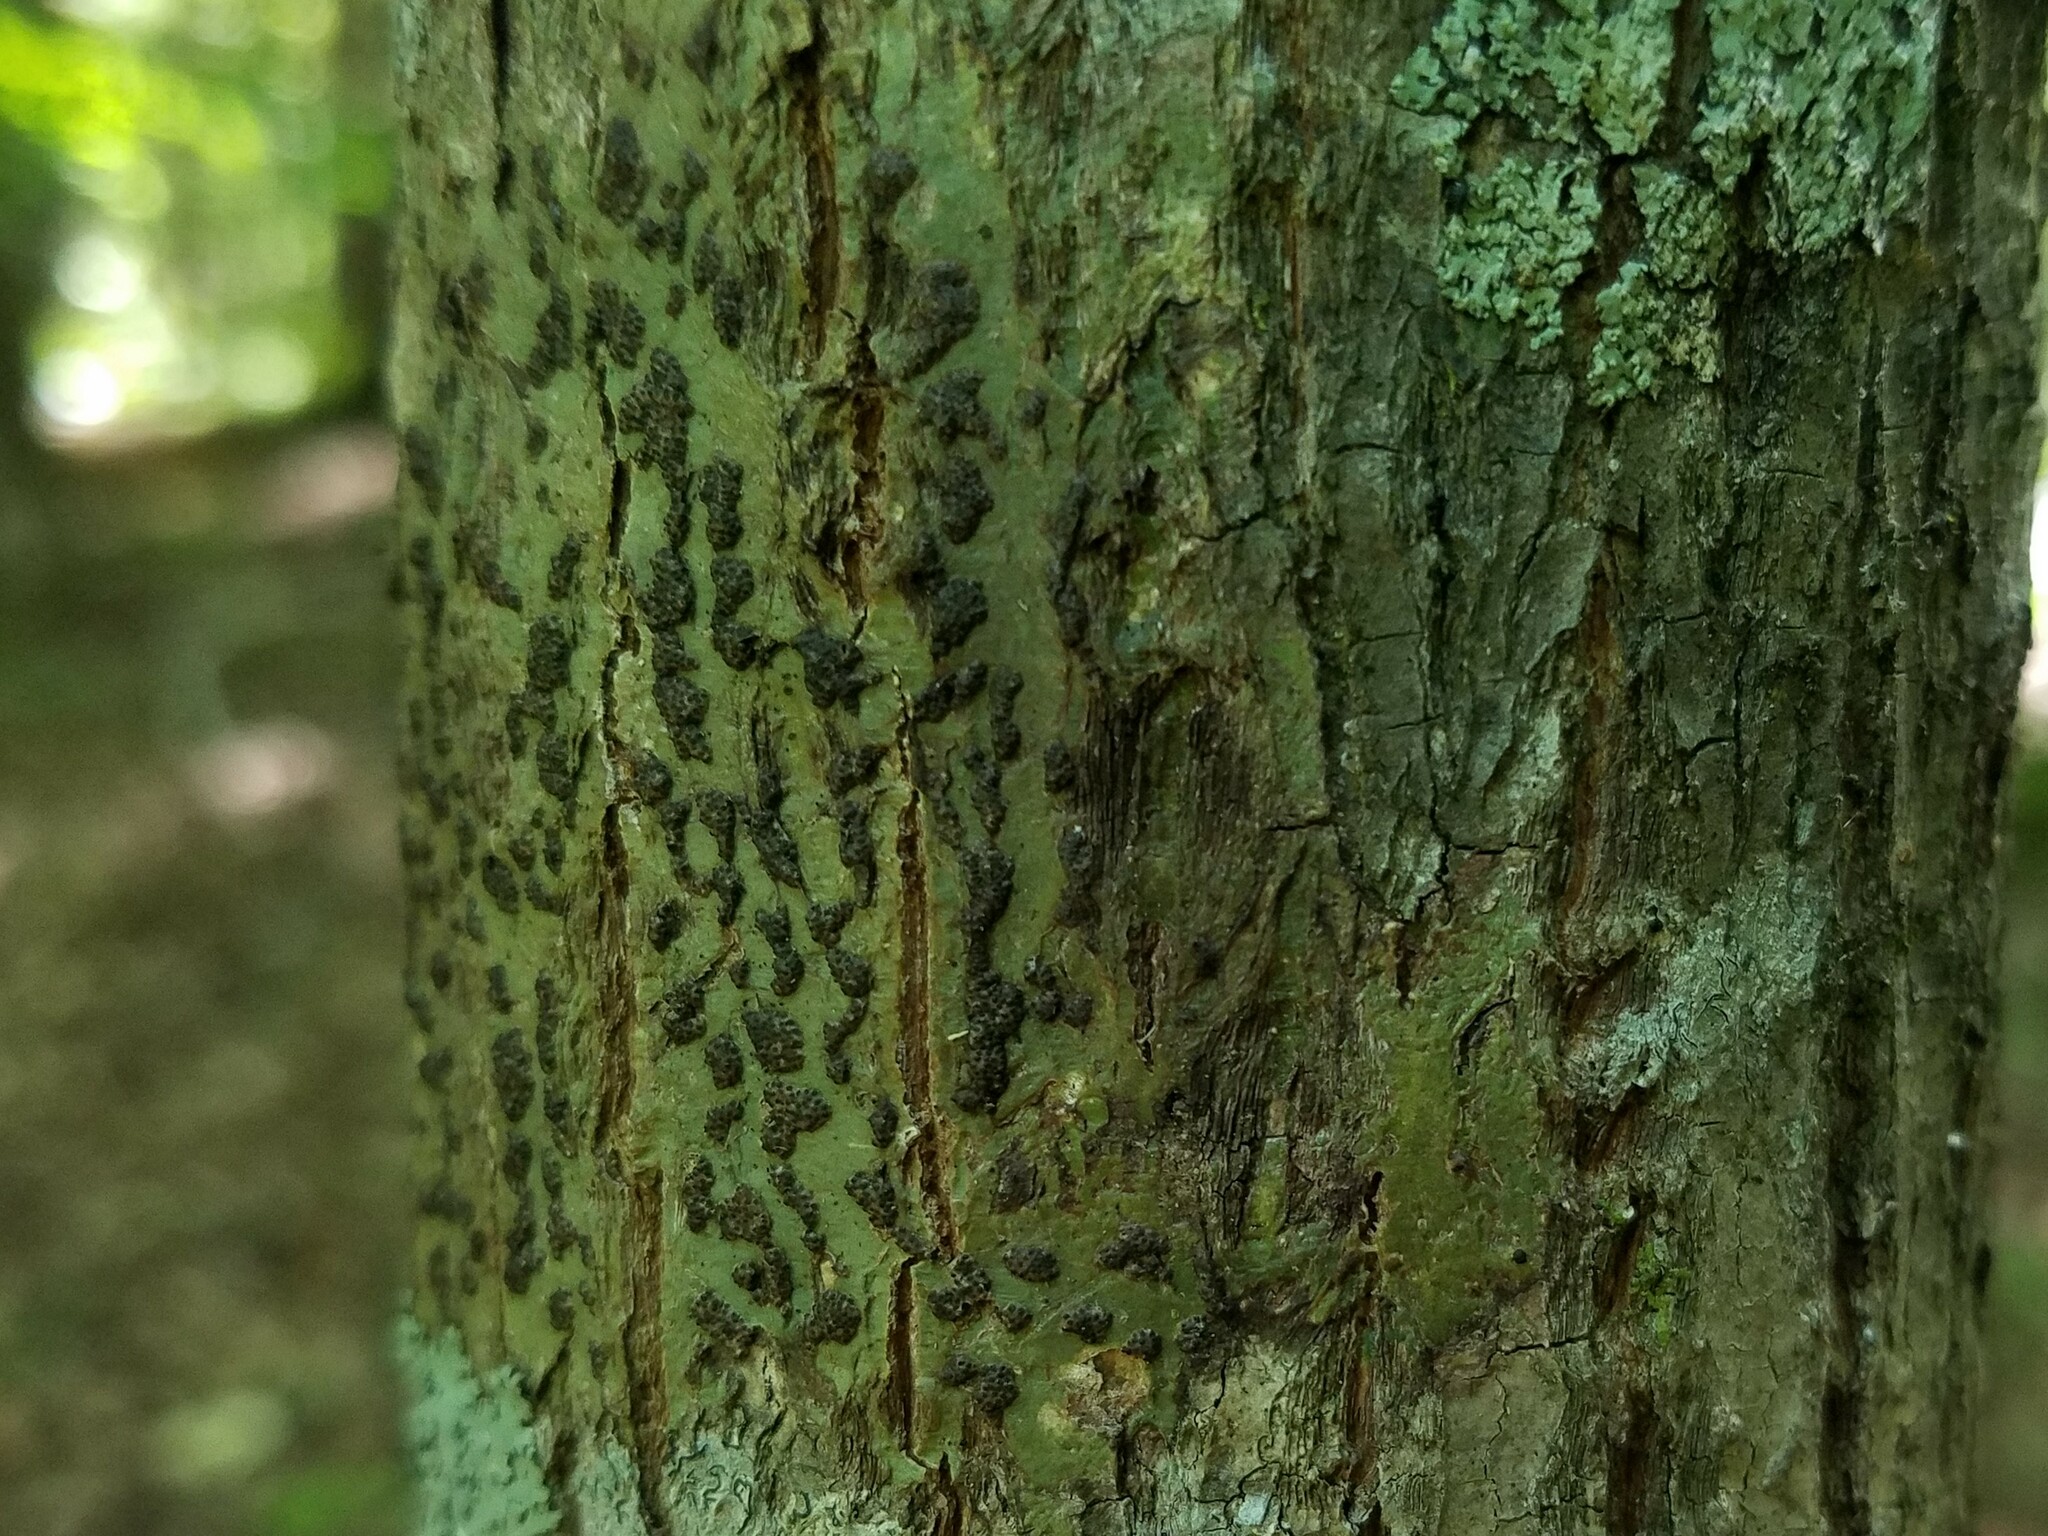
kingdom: Fungi
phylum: Ascomycota
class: Dothideomycetes
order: Trypetheliales
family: Trypetheliaceae
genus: Bathelium
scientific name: Bathelium carolinianum
